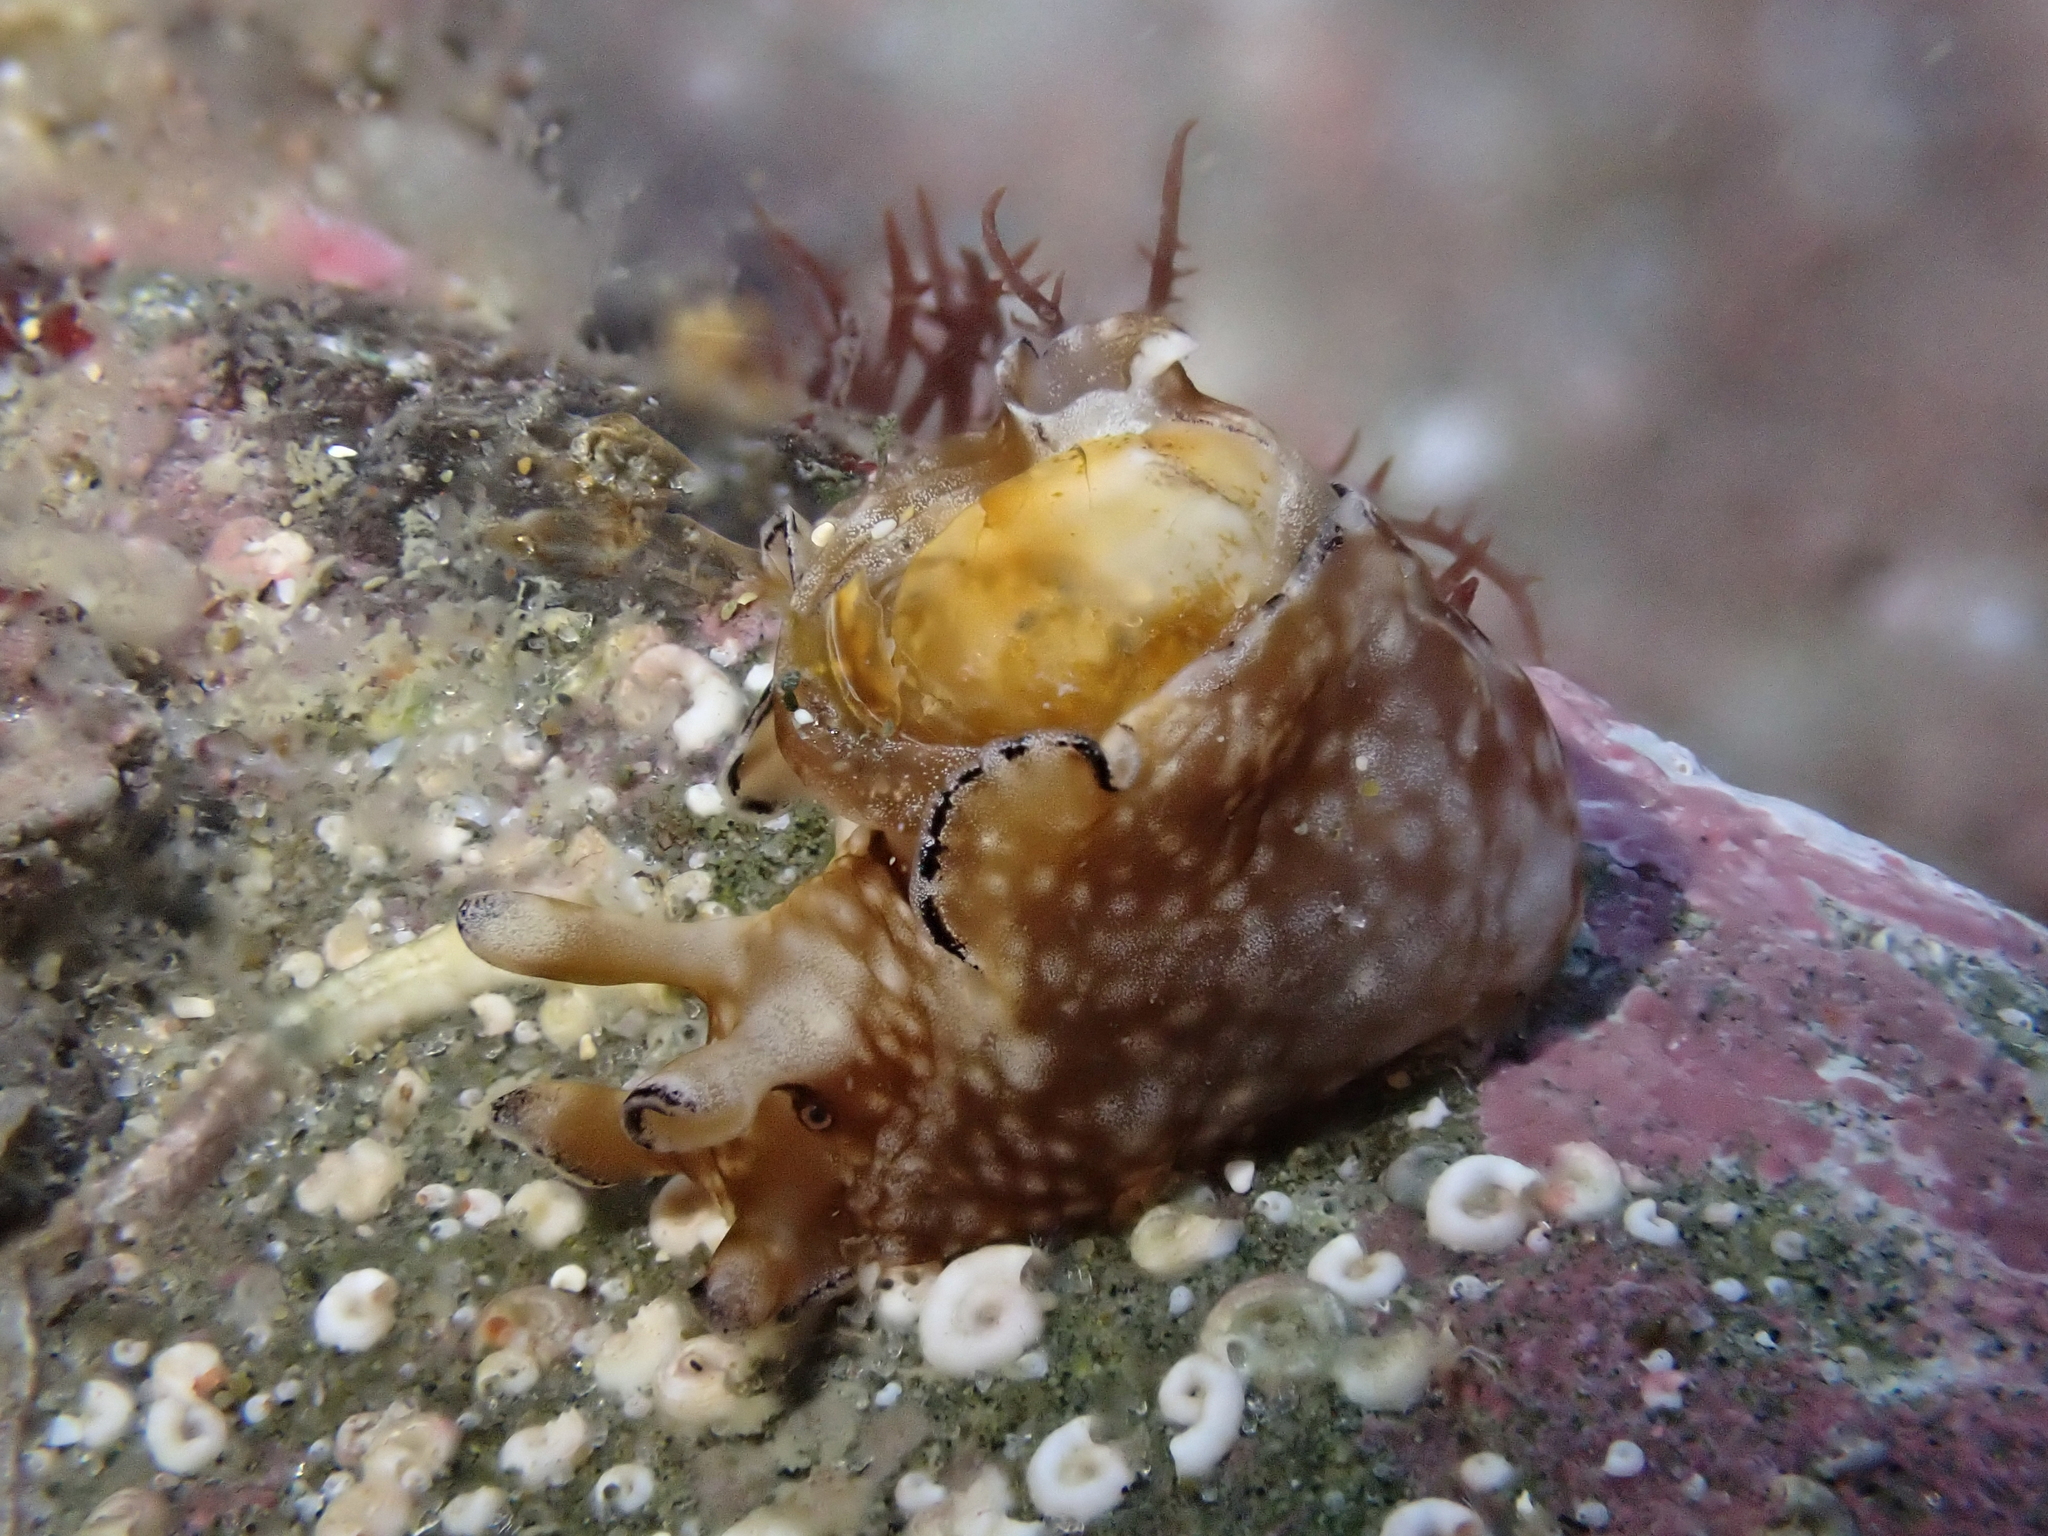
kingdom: Animalia
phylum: Mollusca
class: Gastropoda
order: Aplysiida
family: Aplysiidae
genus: Aplysia
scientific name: Aplysia concava
